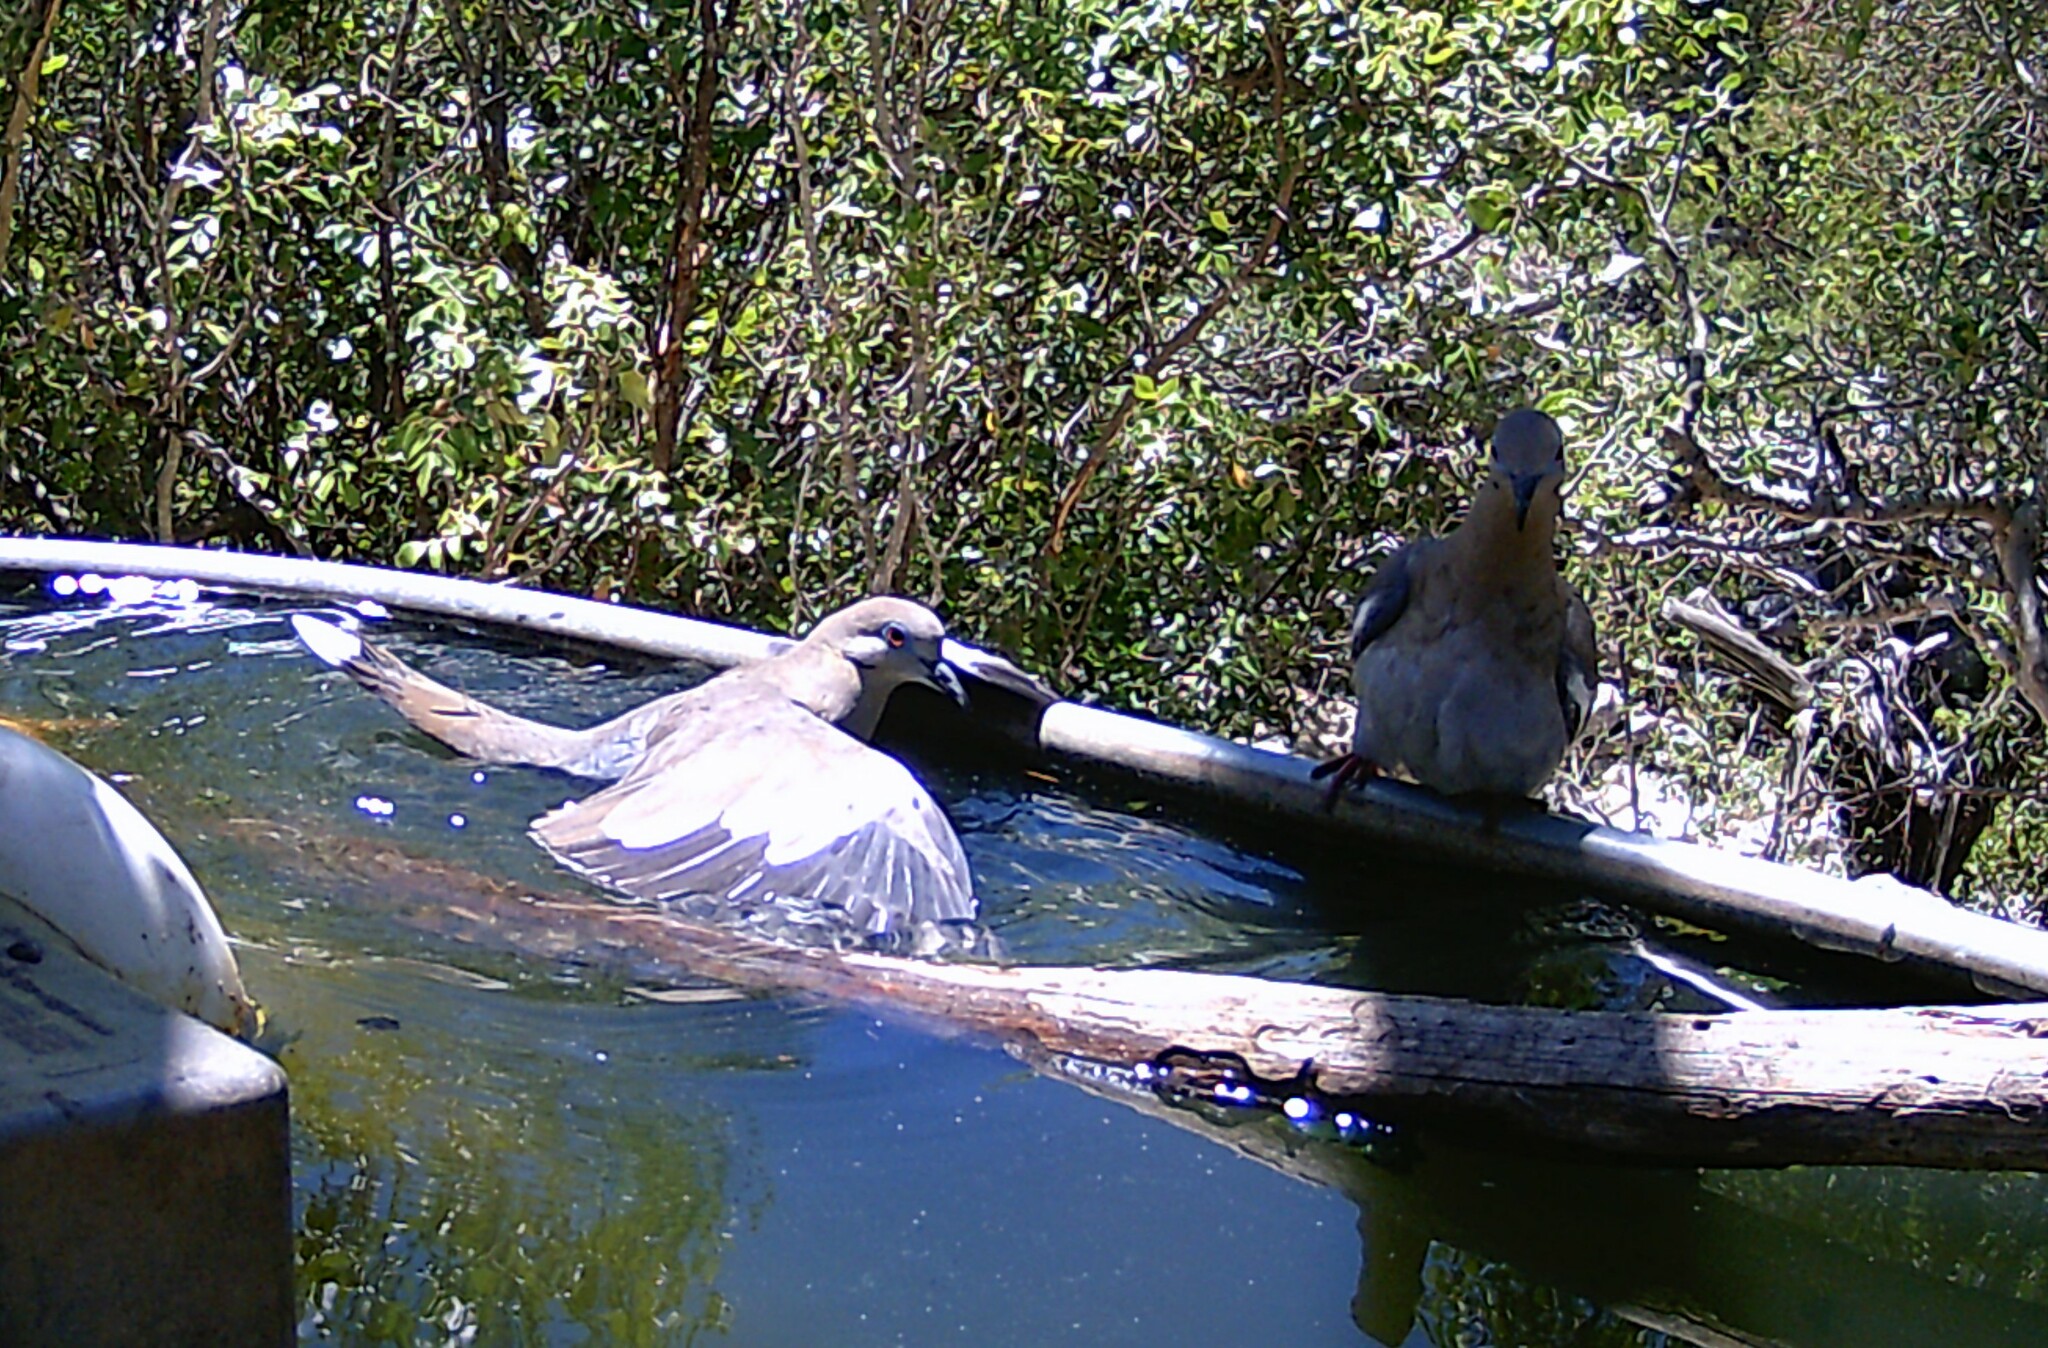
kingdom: Animalia
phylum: Chordata
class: Aves
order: Columbiformes
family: Columbidae
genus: Zenaida
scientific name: Zenaida asiatica
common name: White-winged dove
